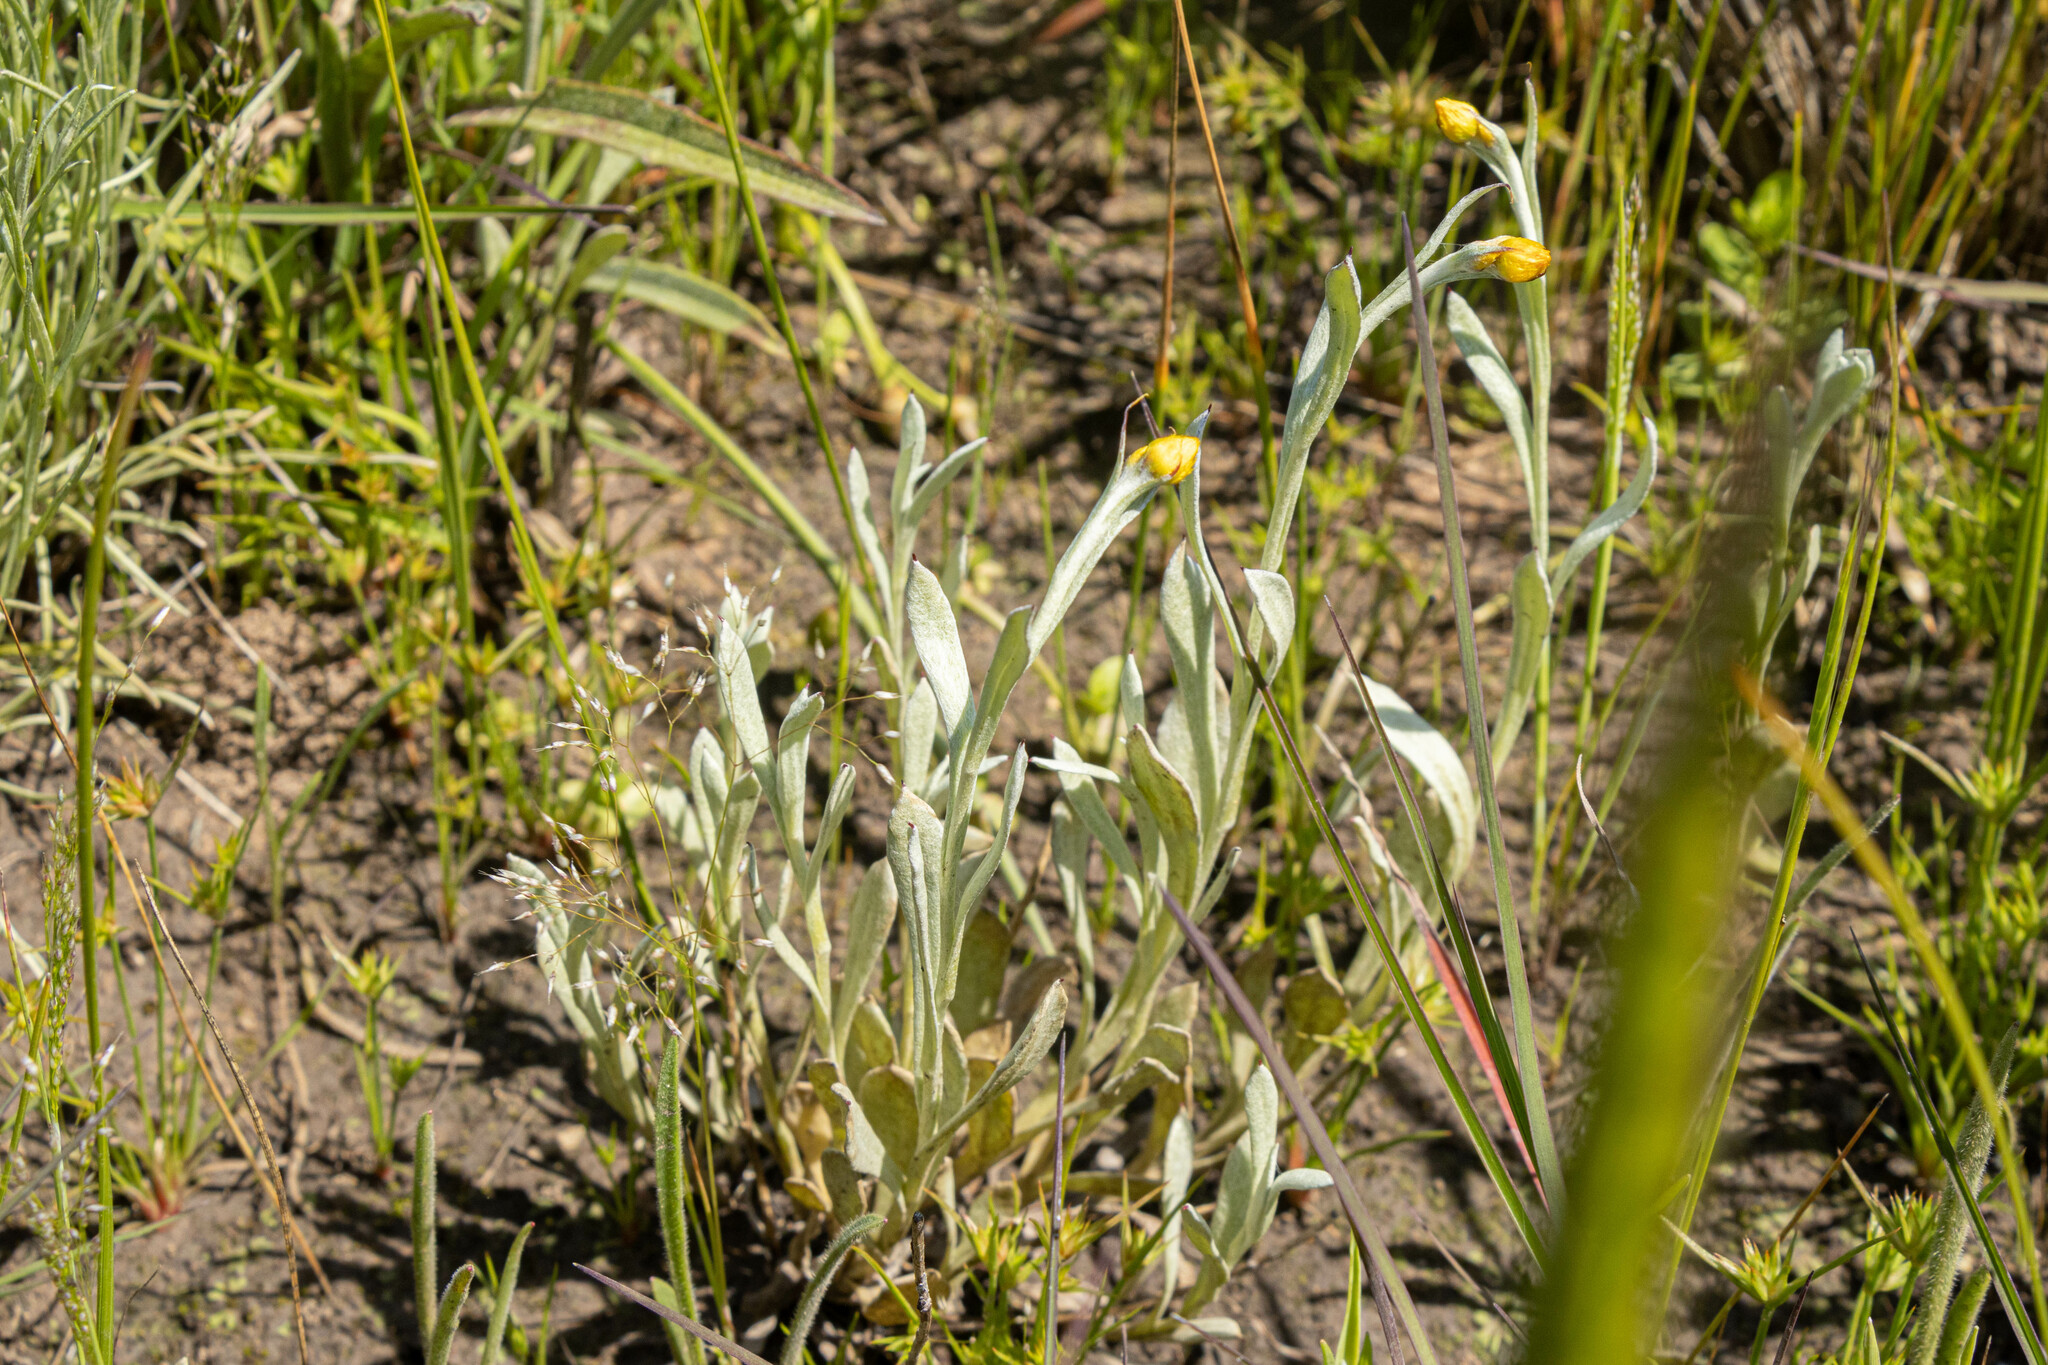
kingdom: Plantae
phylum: Tracheophyta
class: Magnoliopsida
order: Asterales
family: Asteraceae
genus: Chrysocephalum
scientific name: Chrysocephalum apiculatum
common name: Common everlasting
